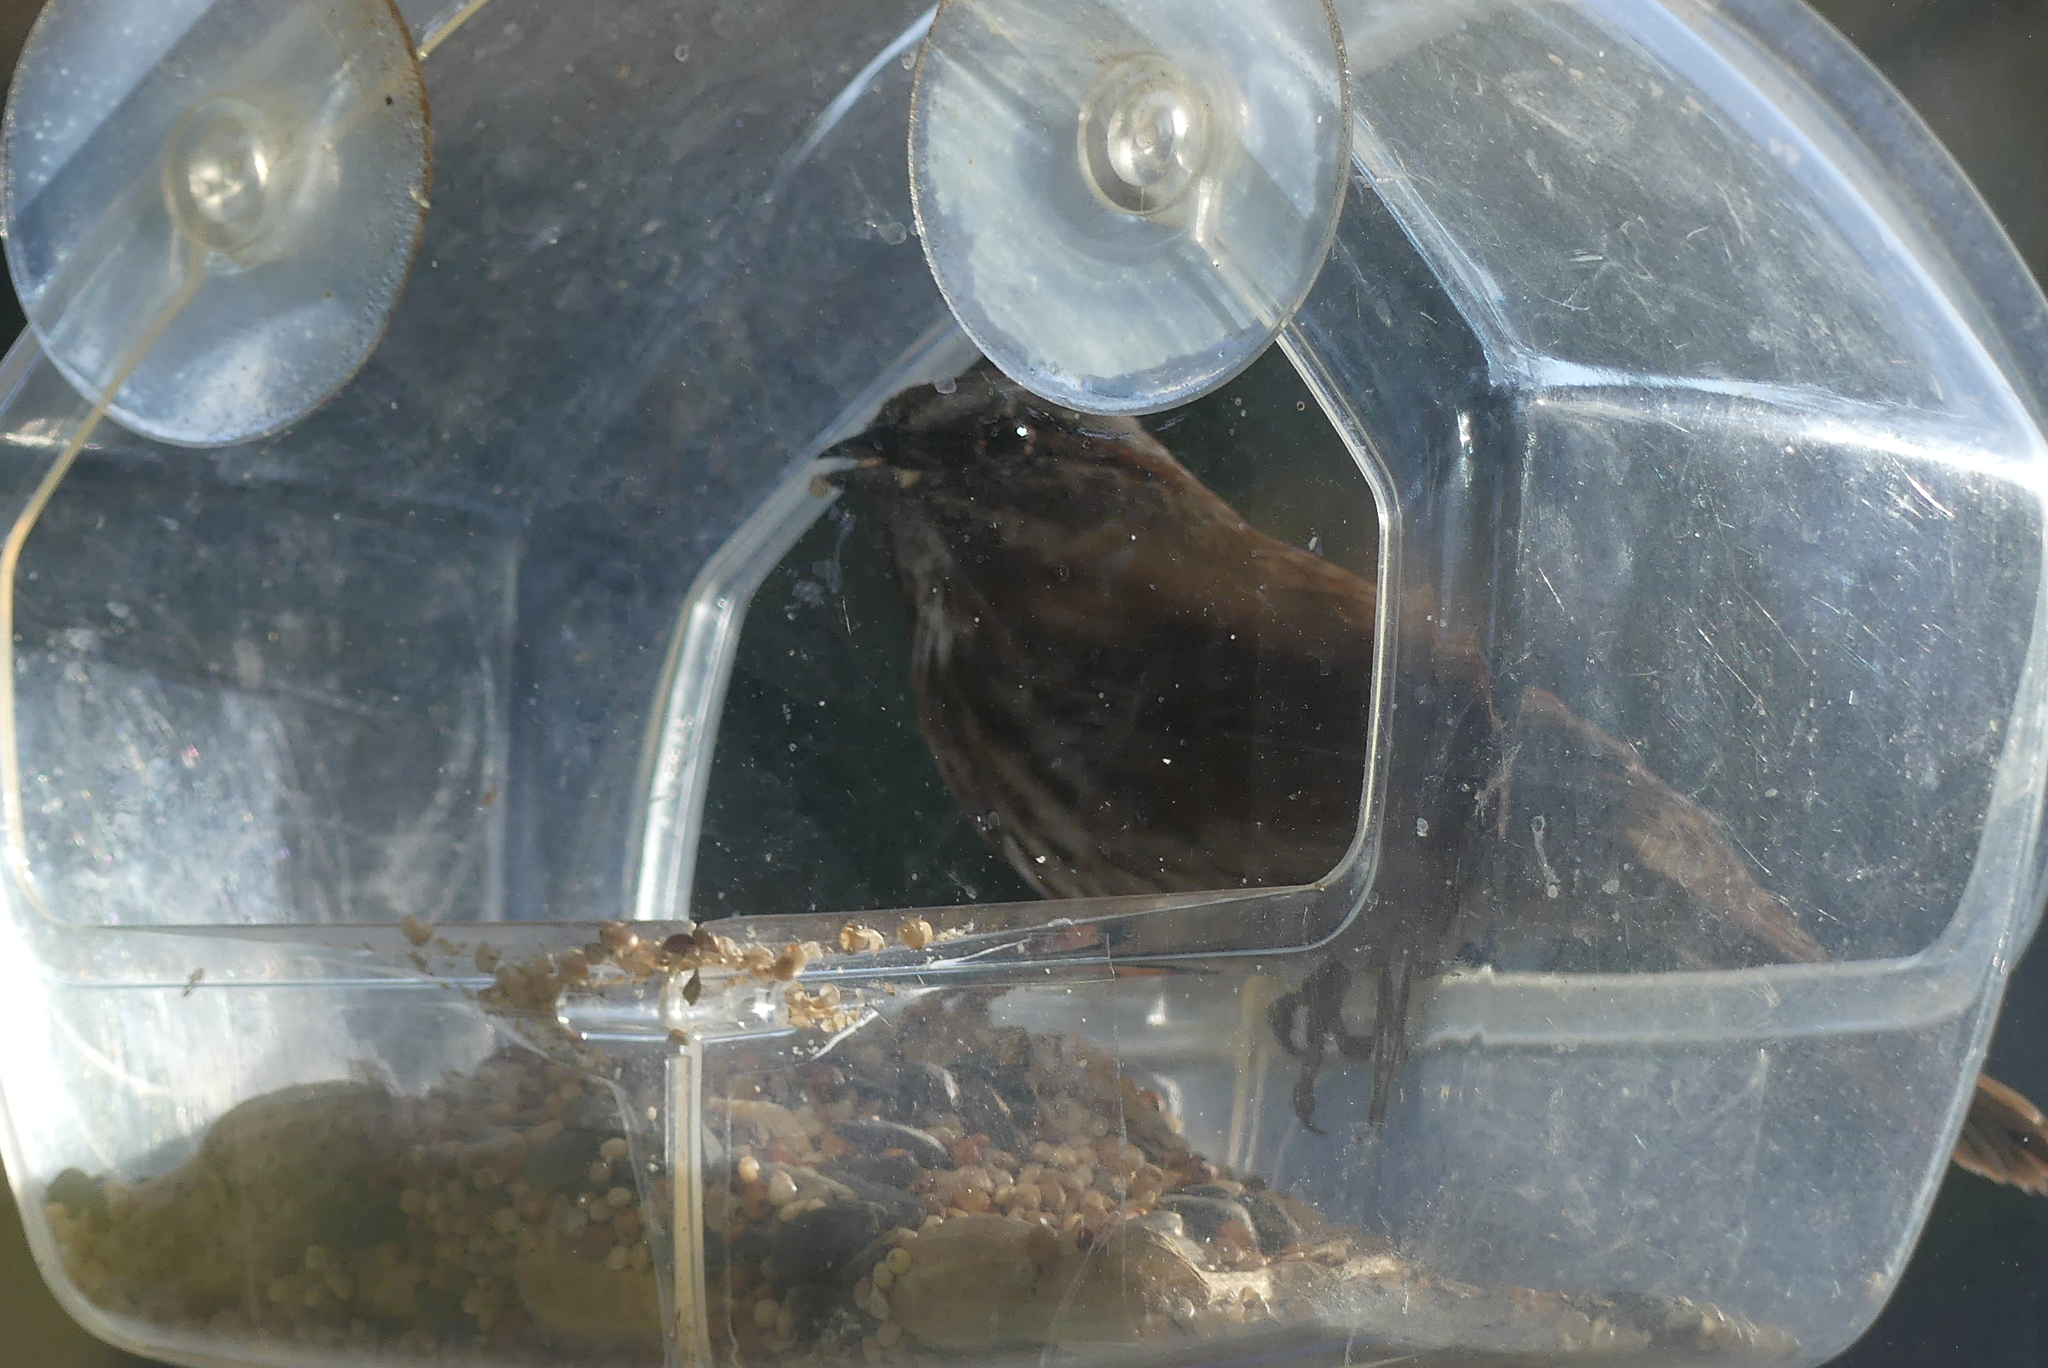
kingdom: Animalia
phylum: Chordata
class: Aves
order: Passeriformes
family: Passerellidae
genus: Melospiza
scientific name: Melospiza melodia
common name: Song sparrow
